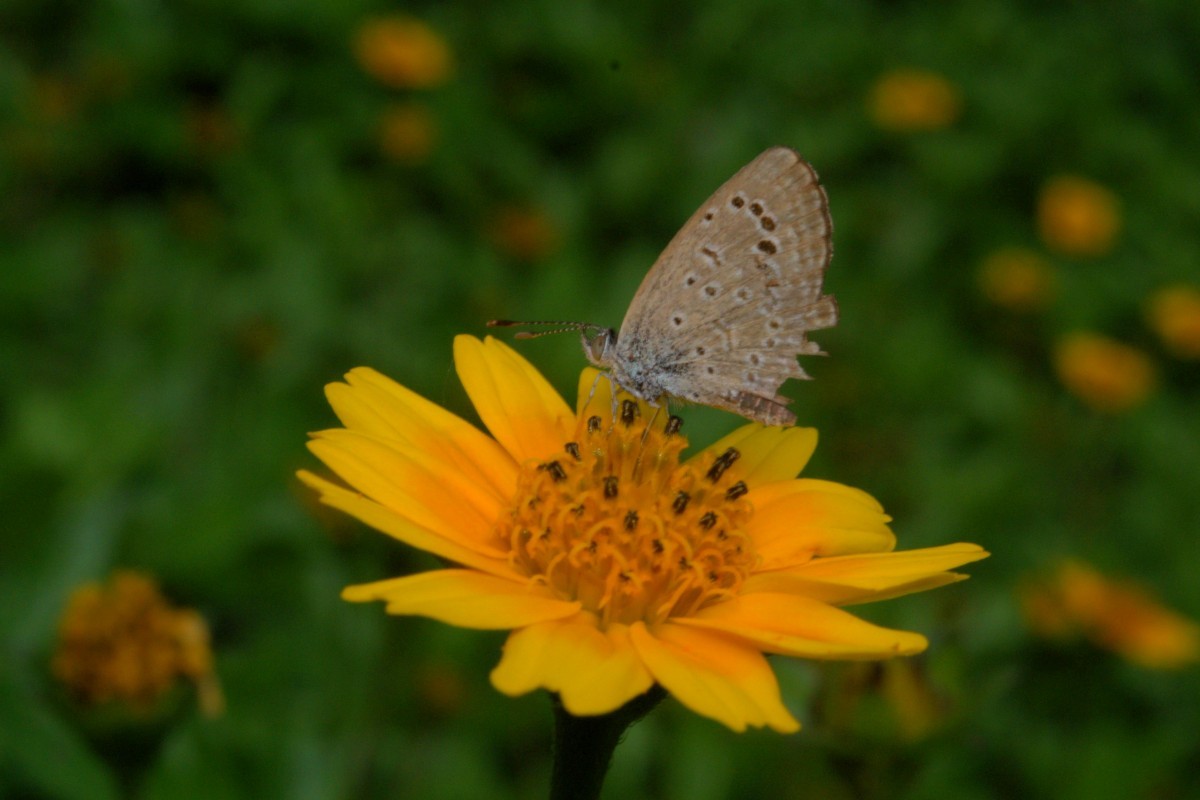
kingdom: Animalia
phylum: Arthropoda
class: Insecta
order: Lepidoptera
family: Lycaenidae
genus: Zizeeria
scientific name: Zizeeria karsandra
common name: Dark grass blue
